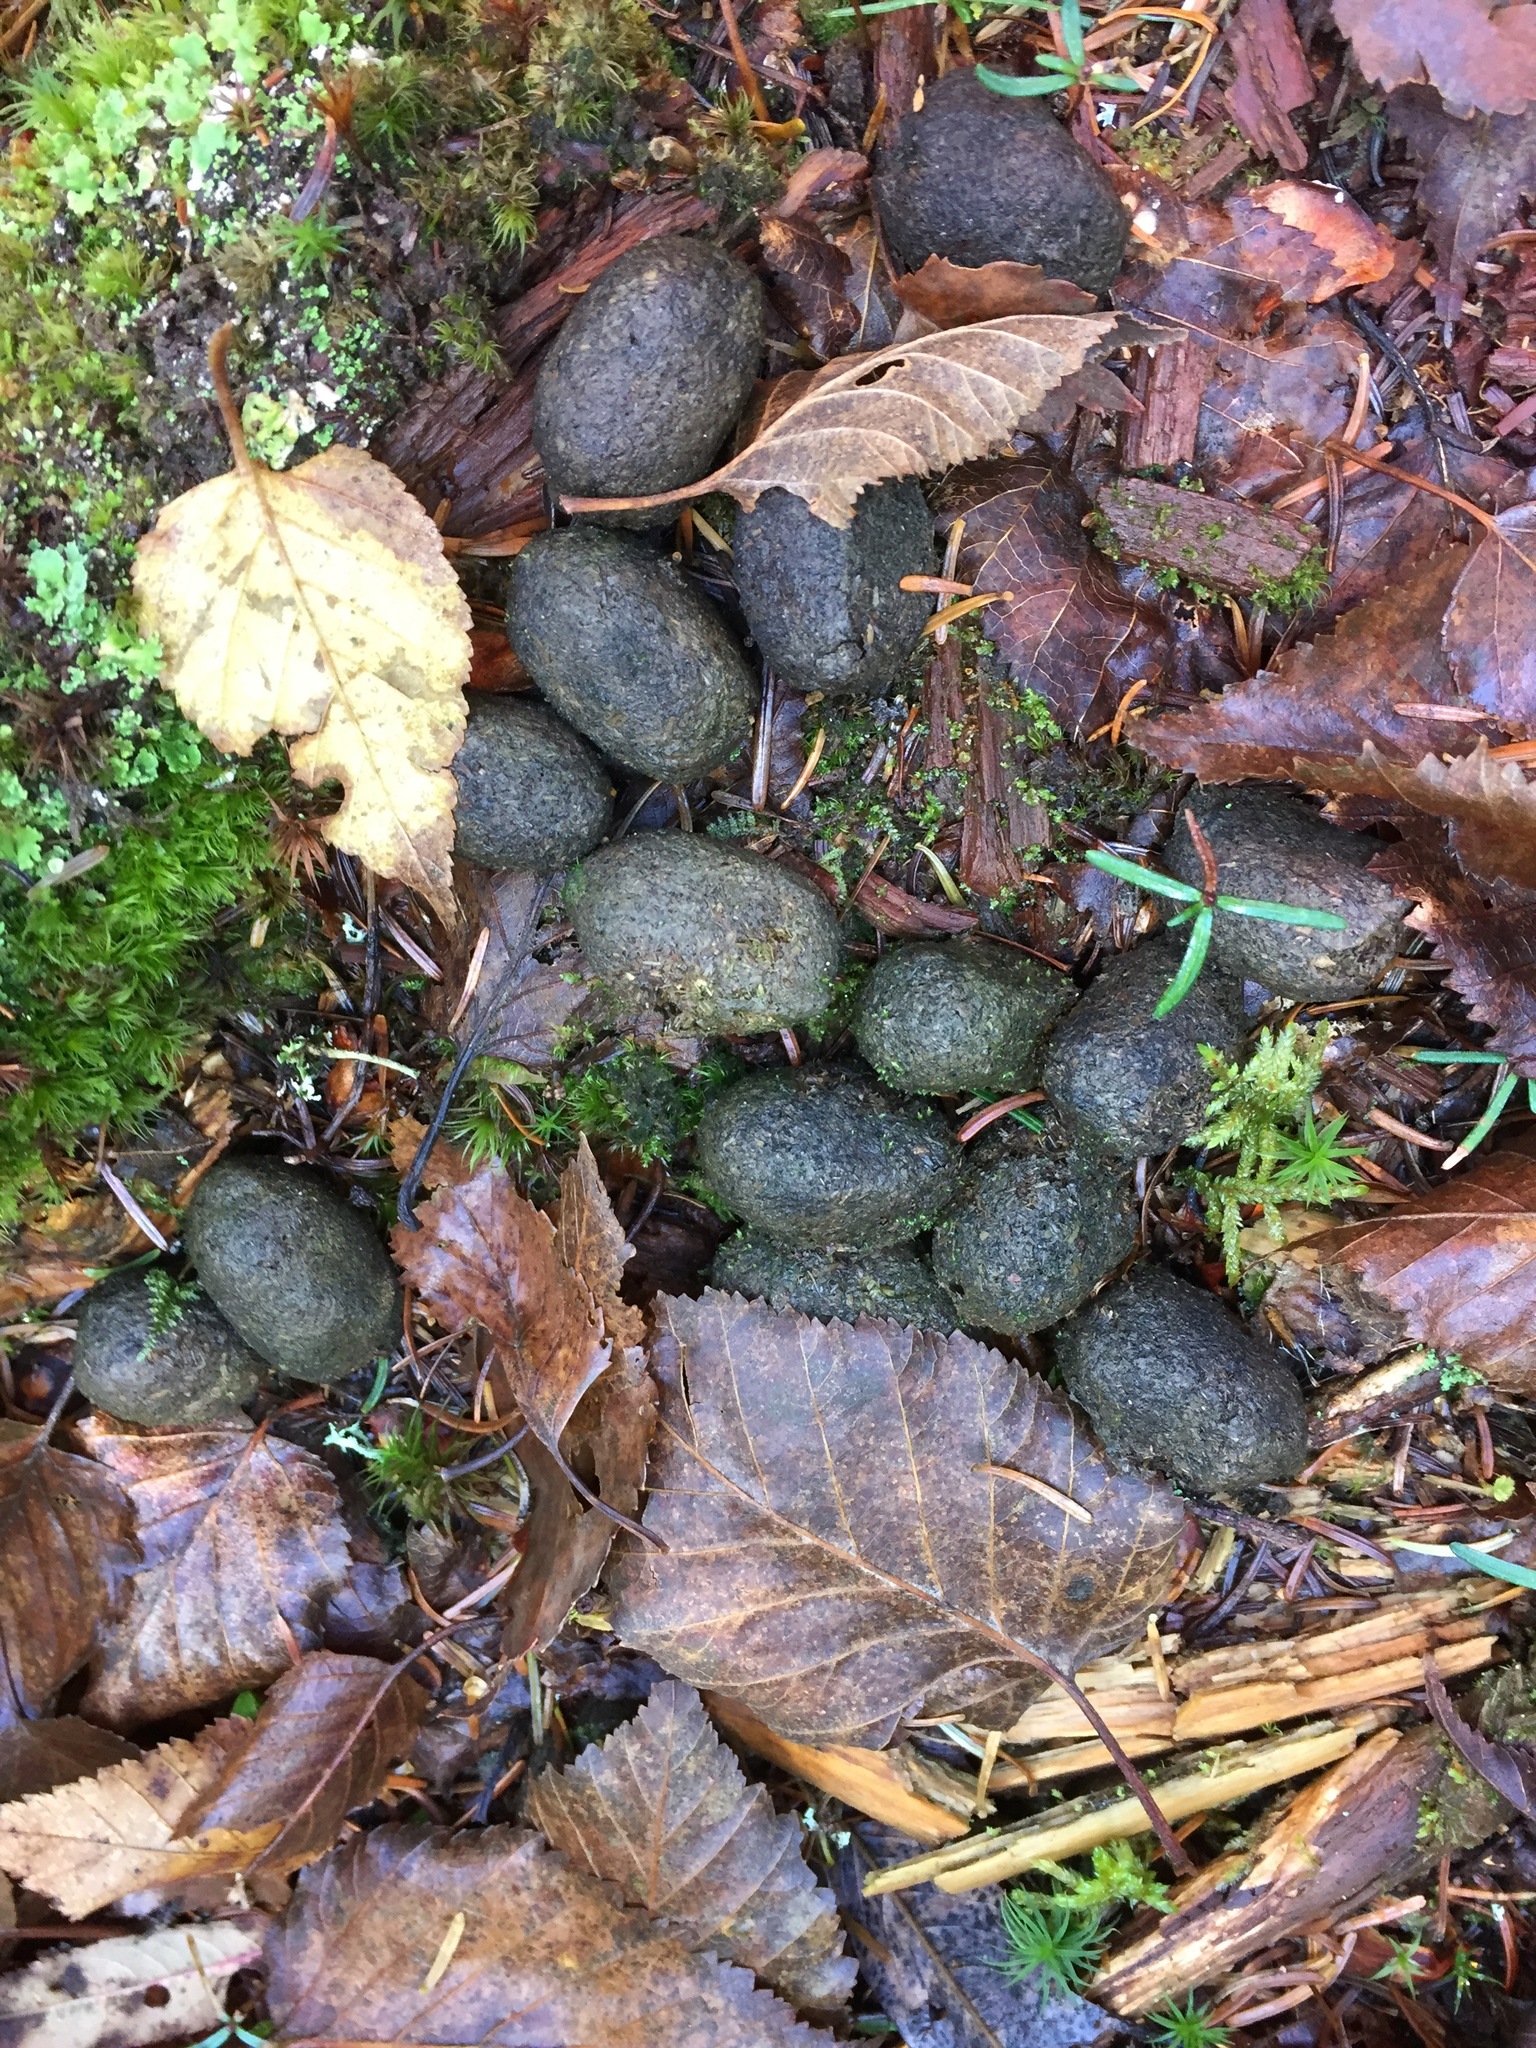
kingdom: Animalia
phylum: Chordata
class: Mammalia
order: Artiodactyla
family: Cervidae
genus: Alces
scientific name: Alces alces
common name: Moose
